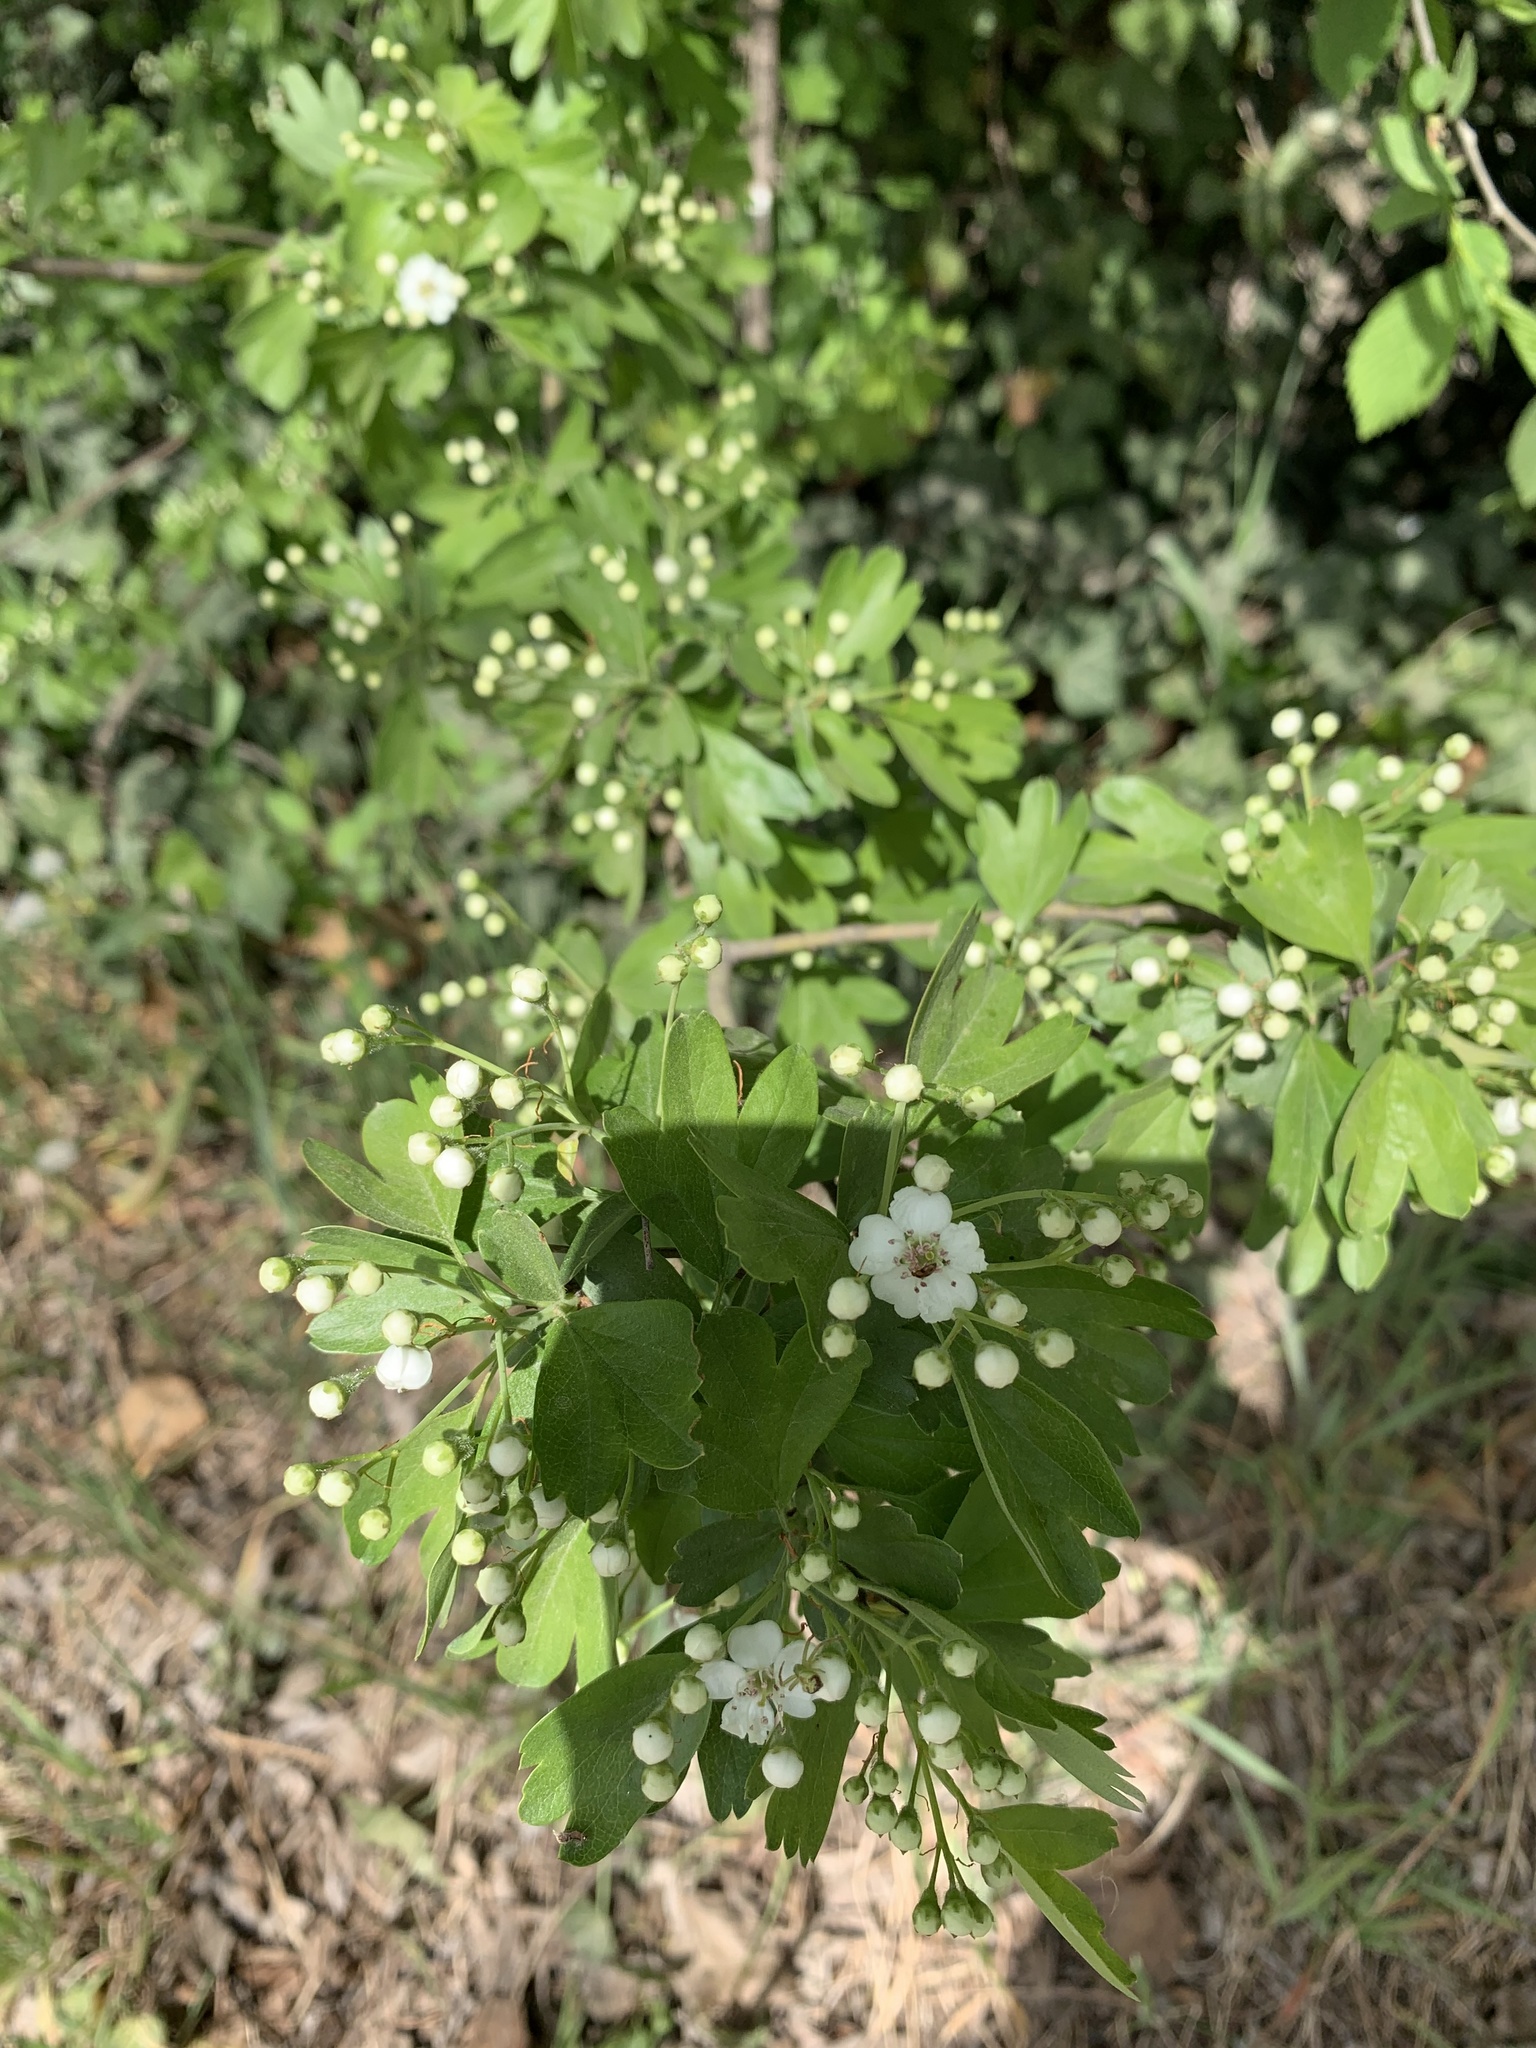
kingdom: Plantae
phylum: Tracheophyta
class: Magnoliopsida
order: Rosales
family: Rosaceae
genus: Crataegus
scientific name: Crataegus monogyna
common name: Hawthorn
